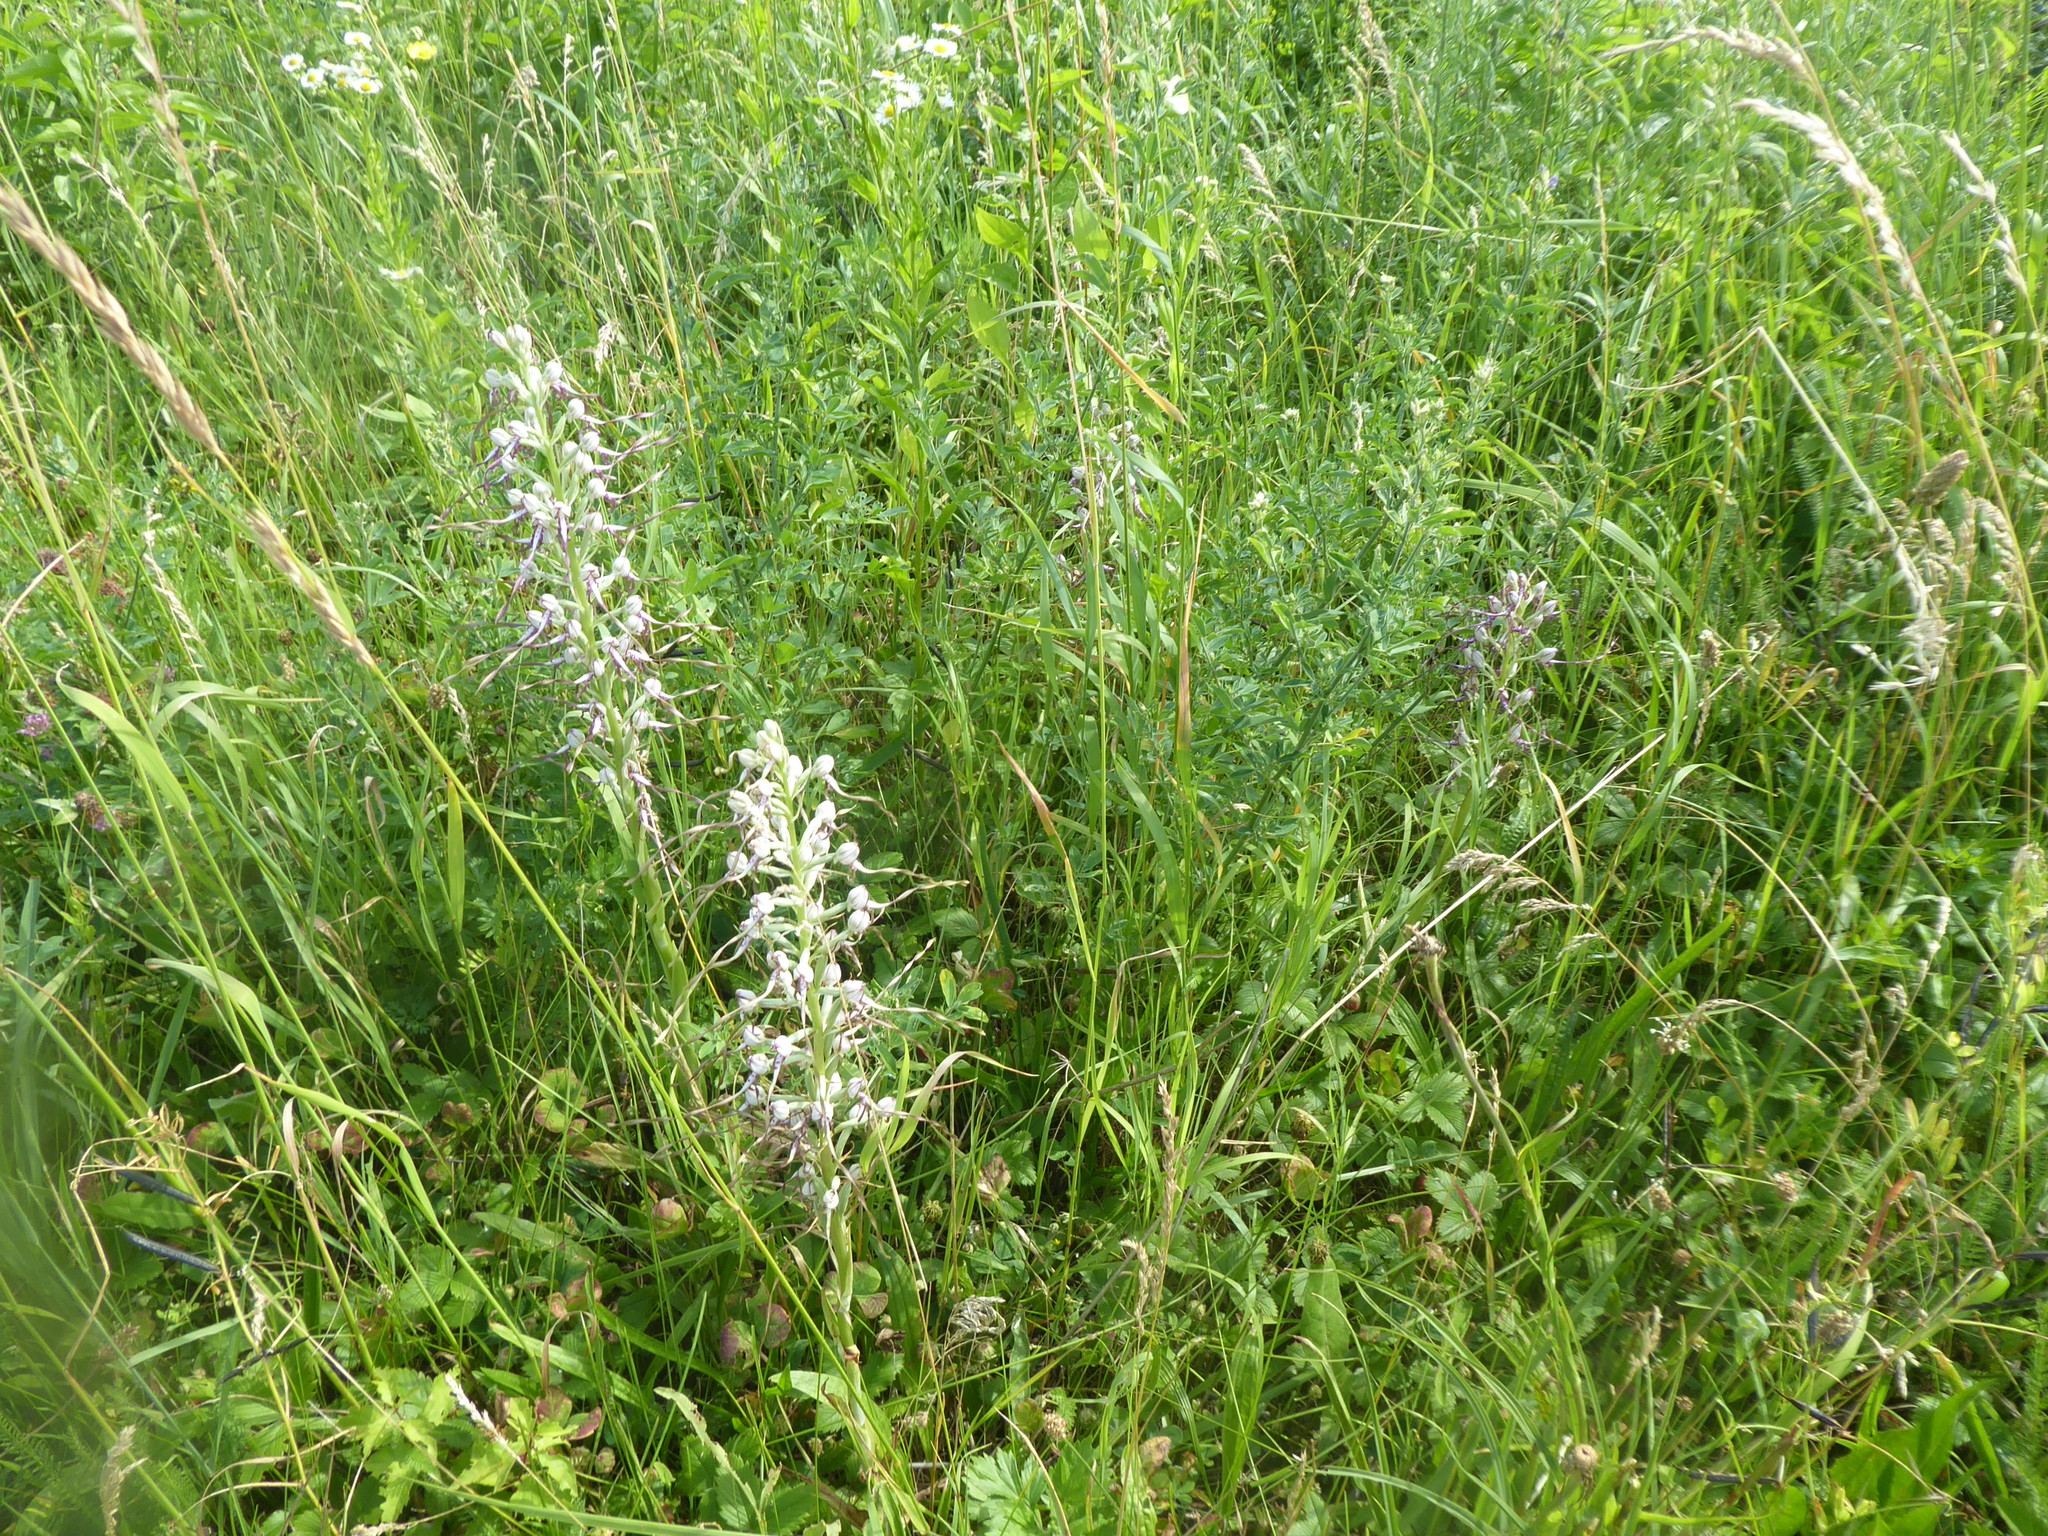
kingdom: Plantae
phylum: Tracheophyta
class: Liliopsida
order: Asparagales
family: Orchidaceae
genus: Himantoglossum
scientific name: Himantoglossum adriaticum
